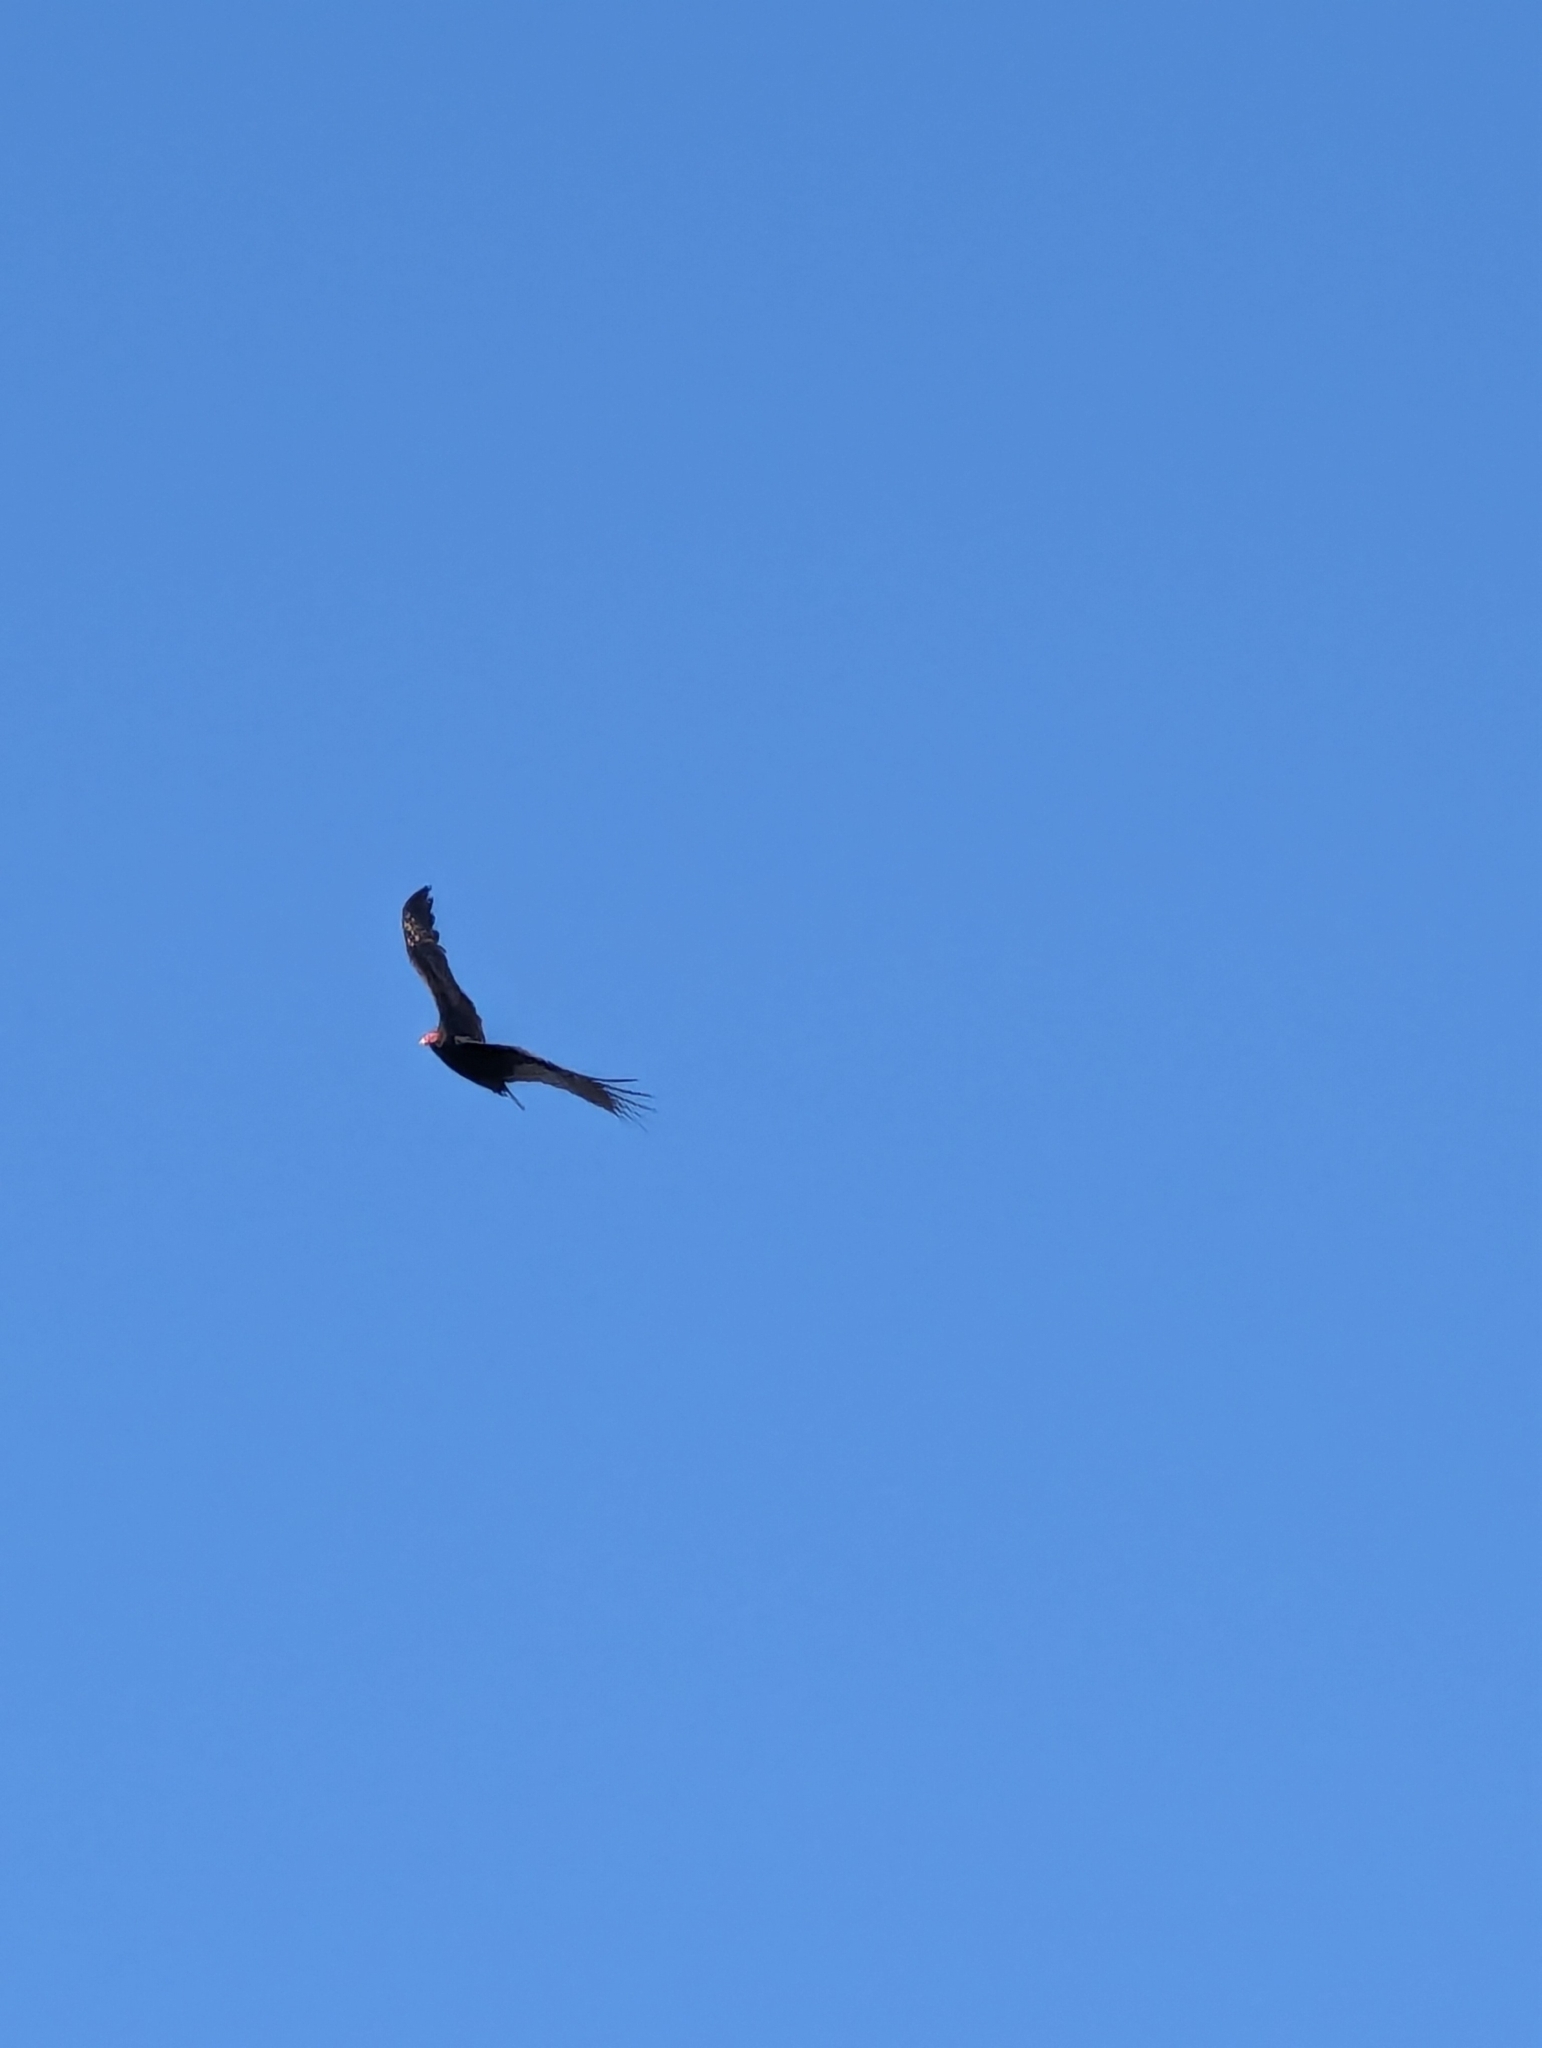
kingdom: Animalia
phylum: Chordata
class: Aves
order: Accipitriformes
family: Cathartidae
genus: Cathartes
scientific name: Cathartes aura
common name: Turkey vulture
